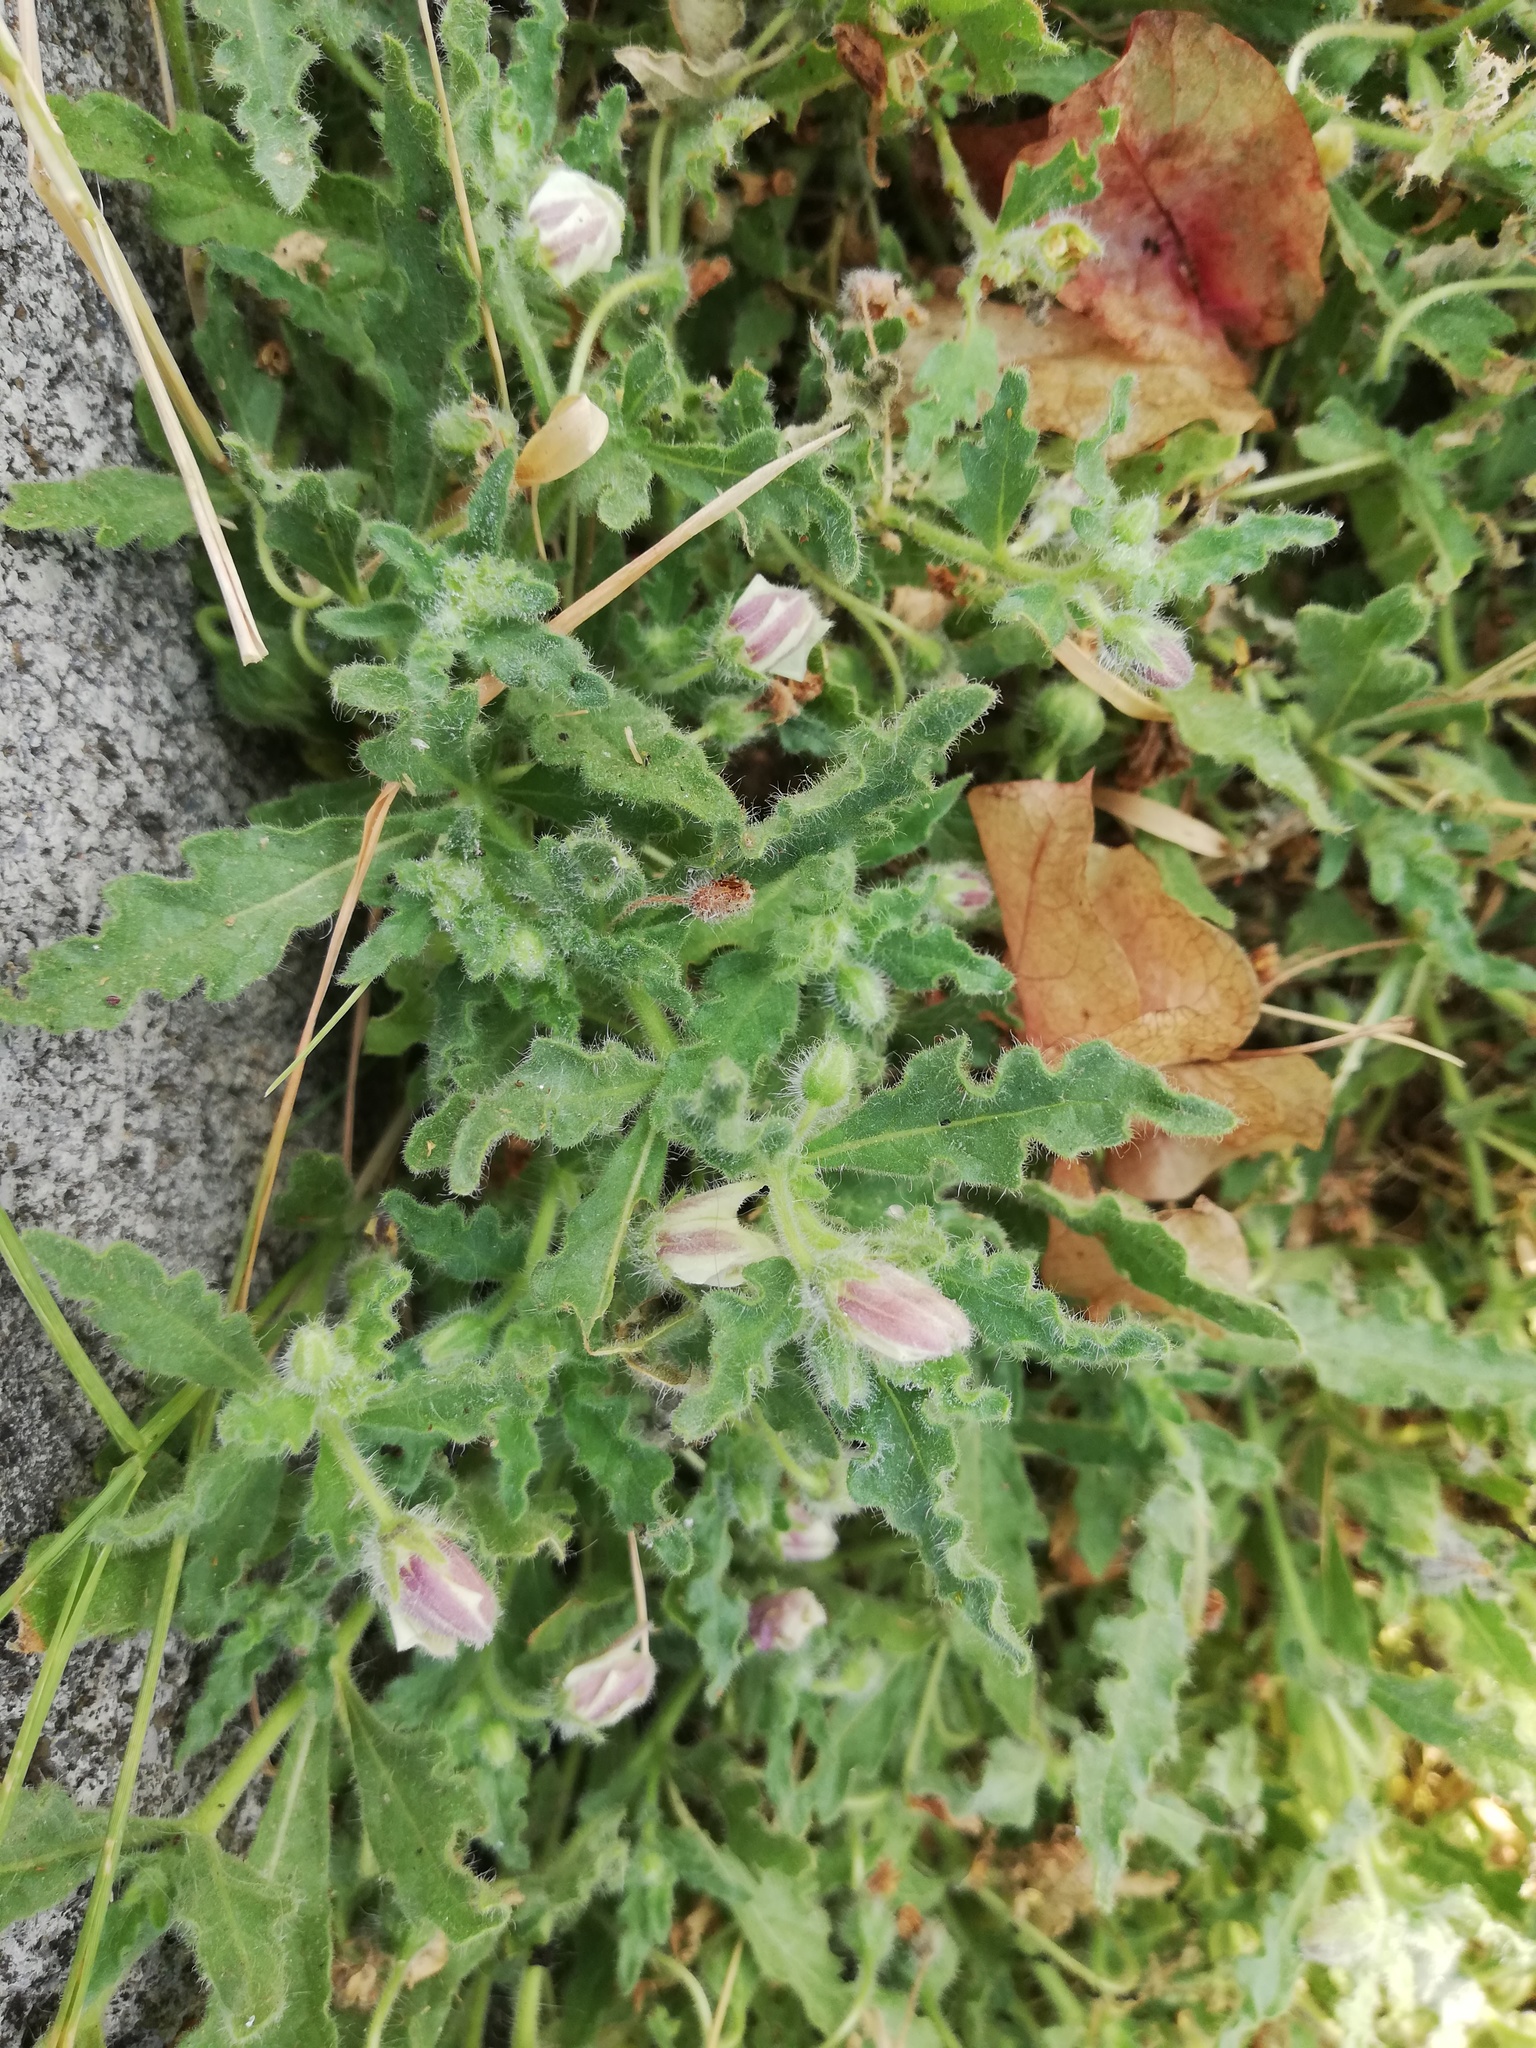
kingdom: Plantae
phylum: Tracheophyta
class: Magnoliopsida
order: Solanales
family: Solanaceae
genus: Chamaesaracha
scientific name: Chamaesaracha villosa
